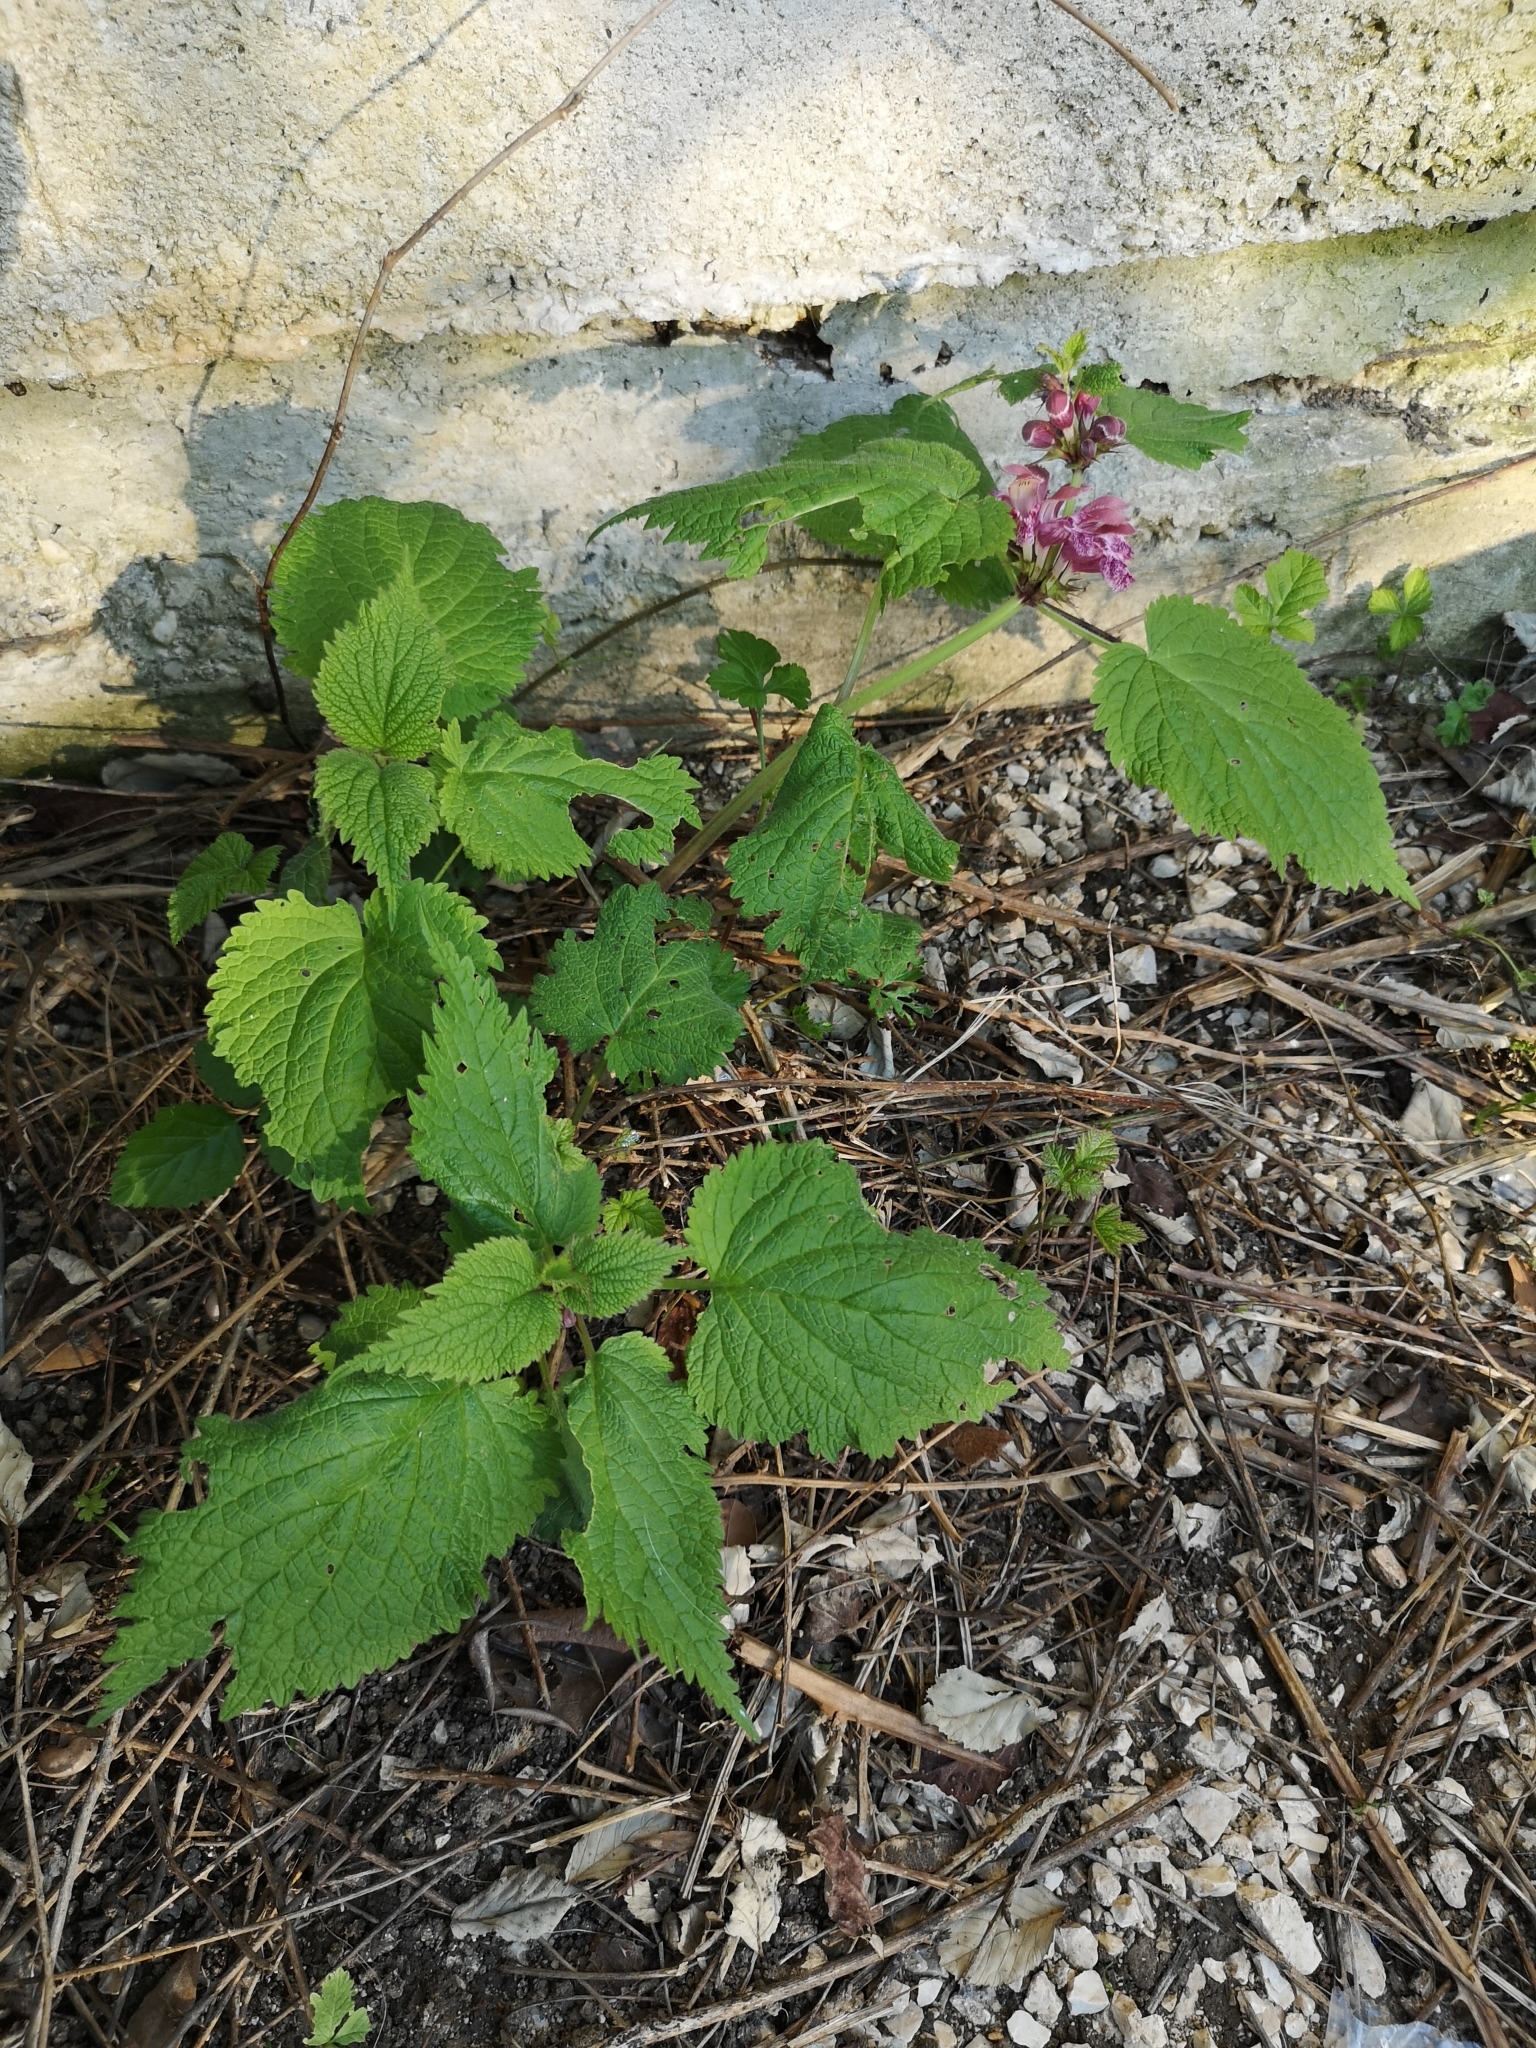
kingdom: Plantae
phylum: Tracheophyta
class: Magnoliopsida
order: Lamiales
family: Lamiaceae
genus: Lamium
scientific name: Lamium orvala
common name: Balm-leaved archangel
